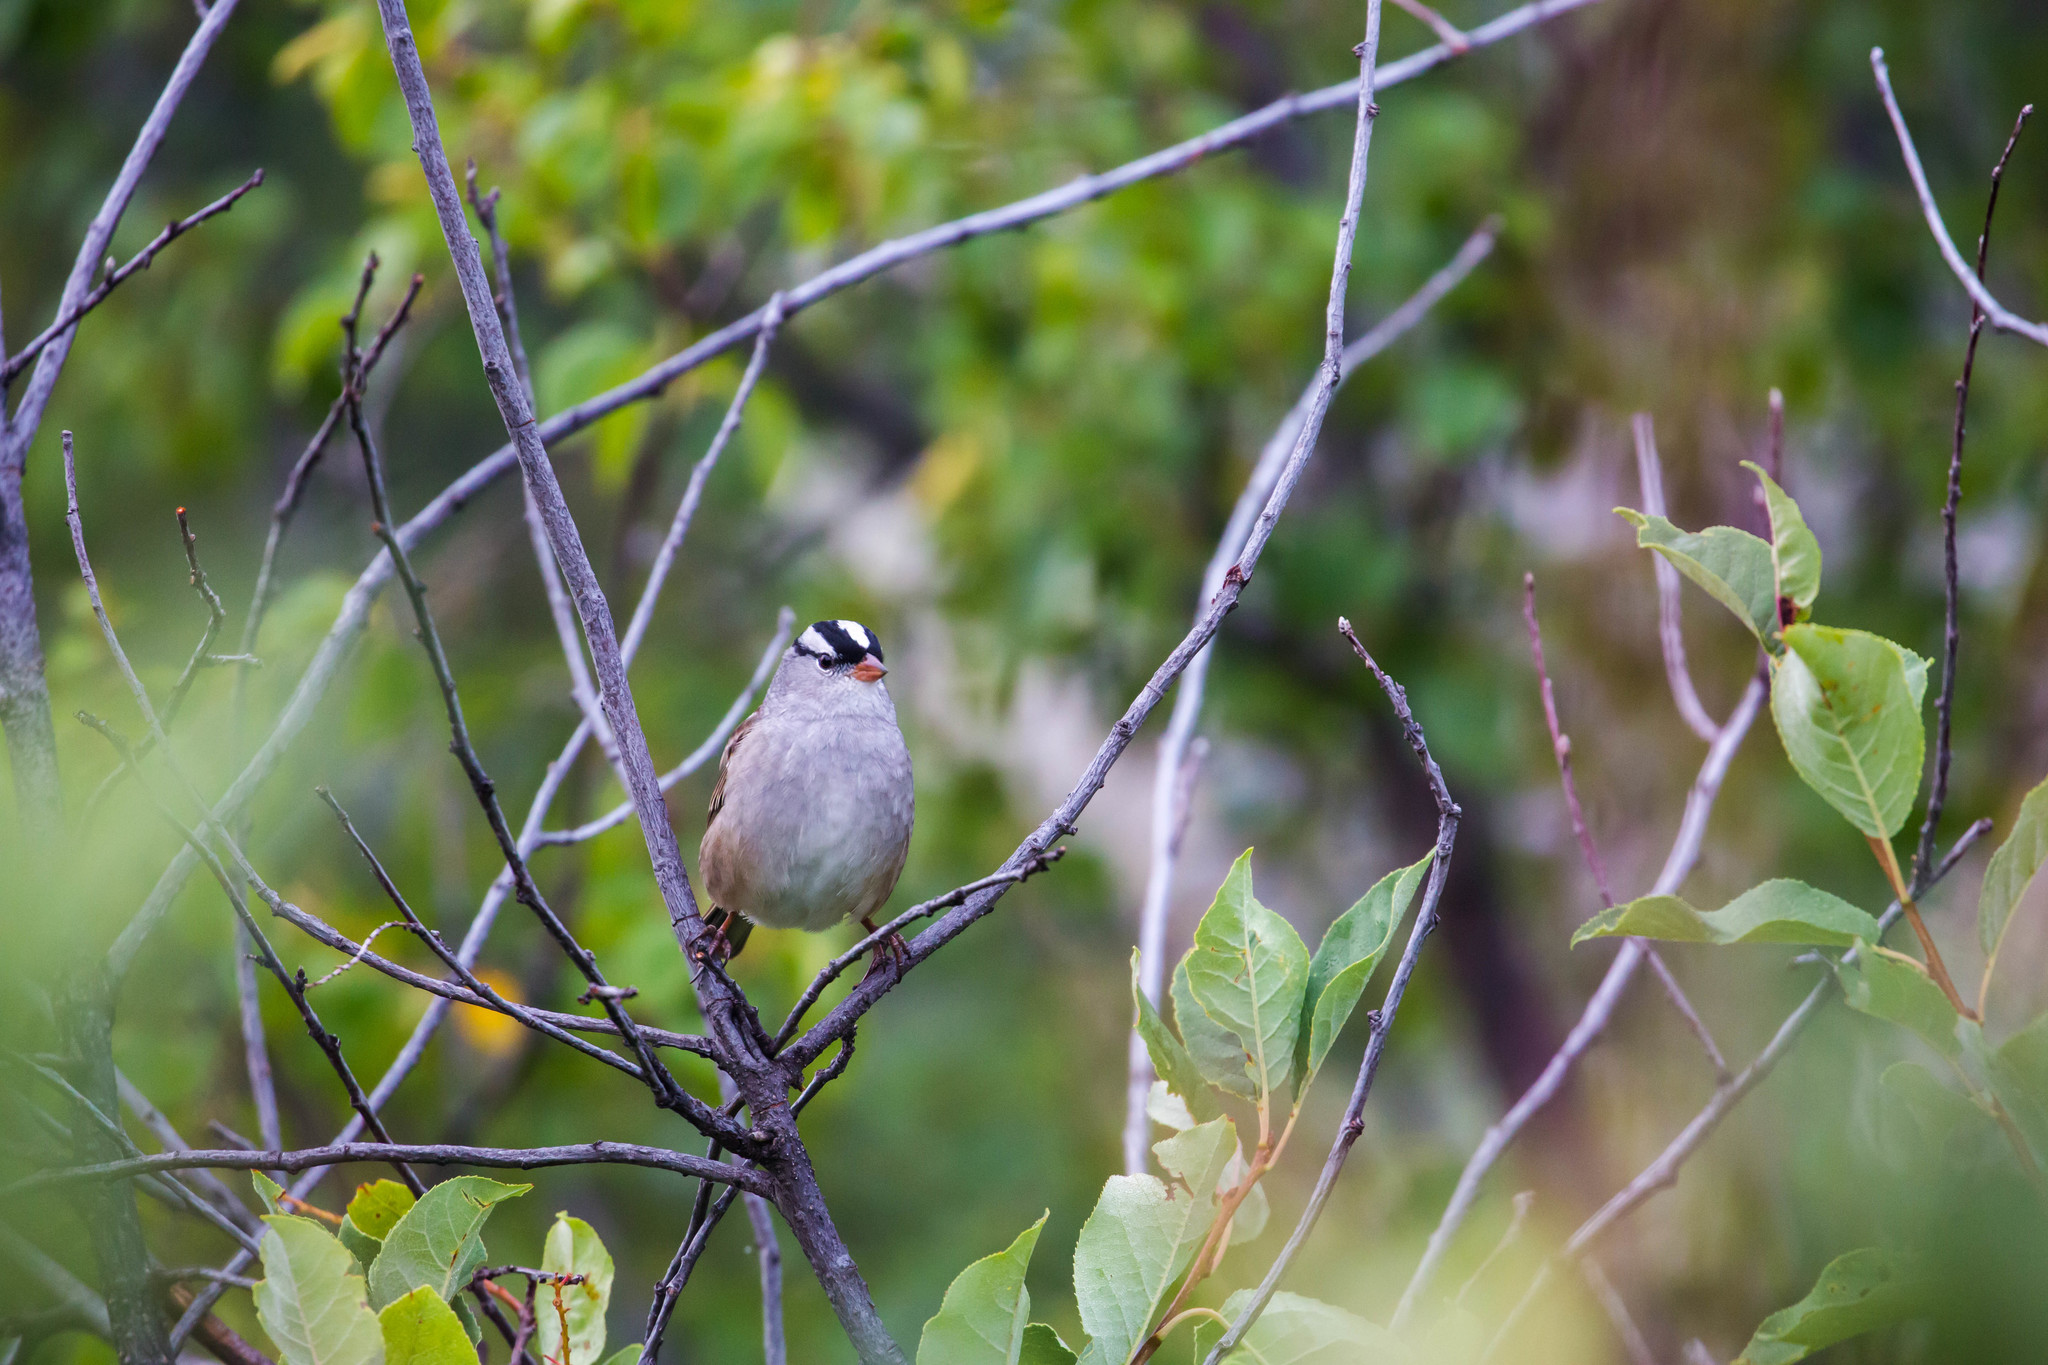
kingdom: Animalia
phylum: Chordata
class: Aves
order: Passeriformes
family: Passerellidae
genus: Zonotrichia
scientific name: Zonotrichia leucophrys
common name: White-crowned sparrow
